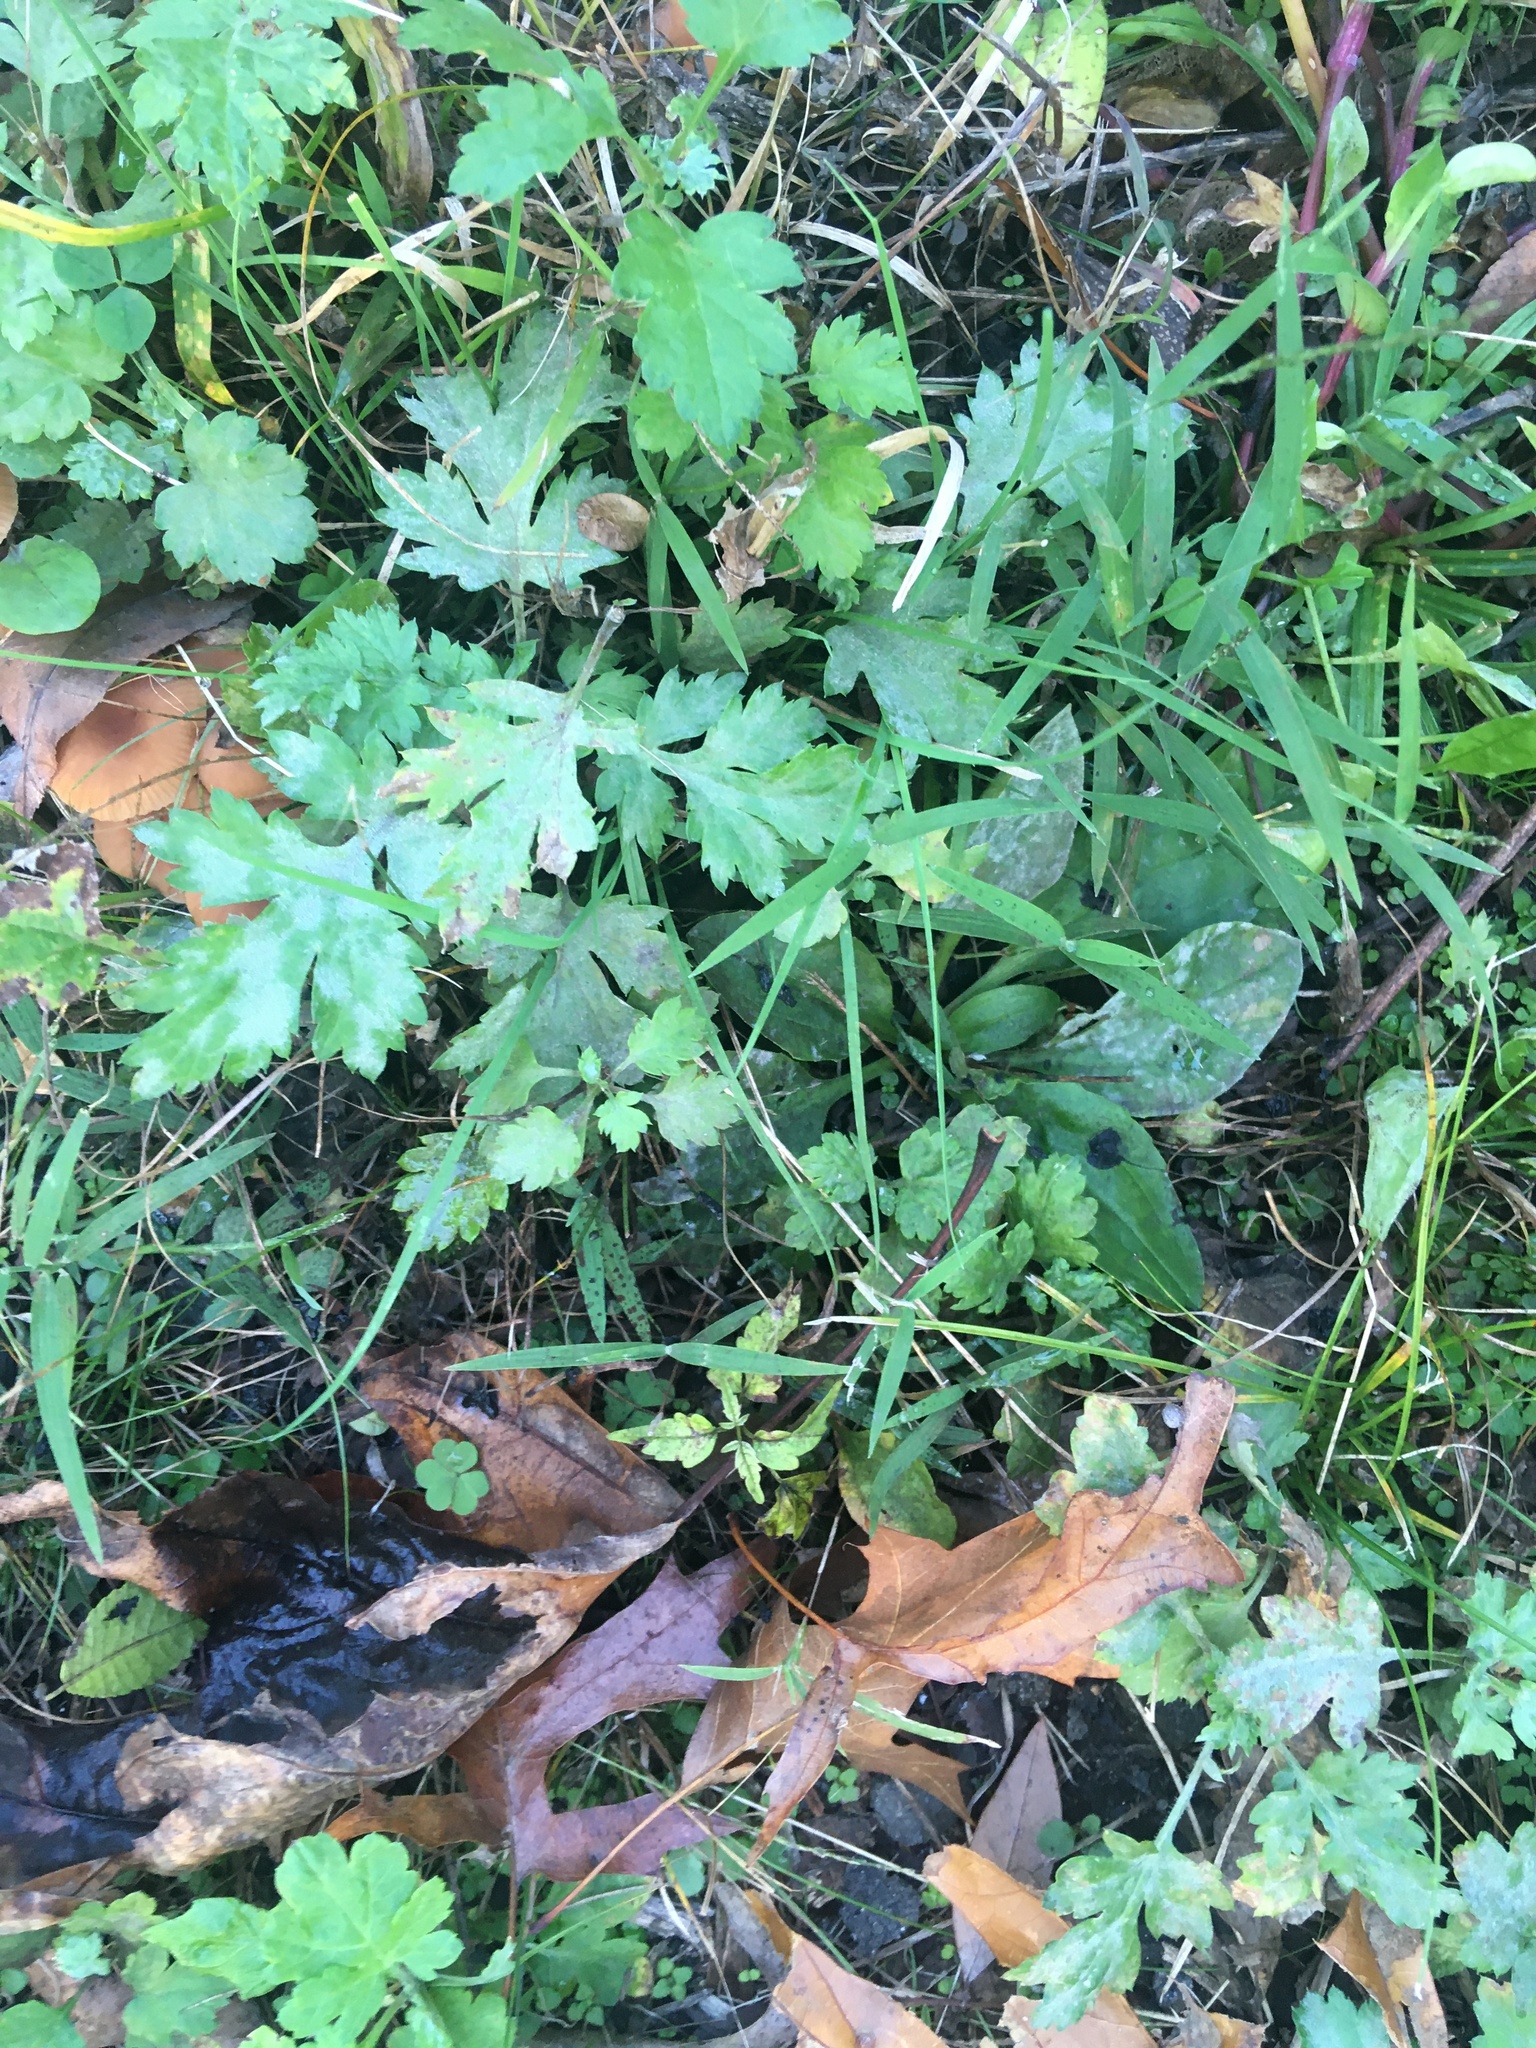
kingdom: Plantae
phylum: Tracheophyta
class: Magnoliopsida
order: Asterales
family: Asteraceae
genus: Artemisia
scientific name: Artemisia vulgaris
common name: Mugwort
